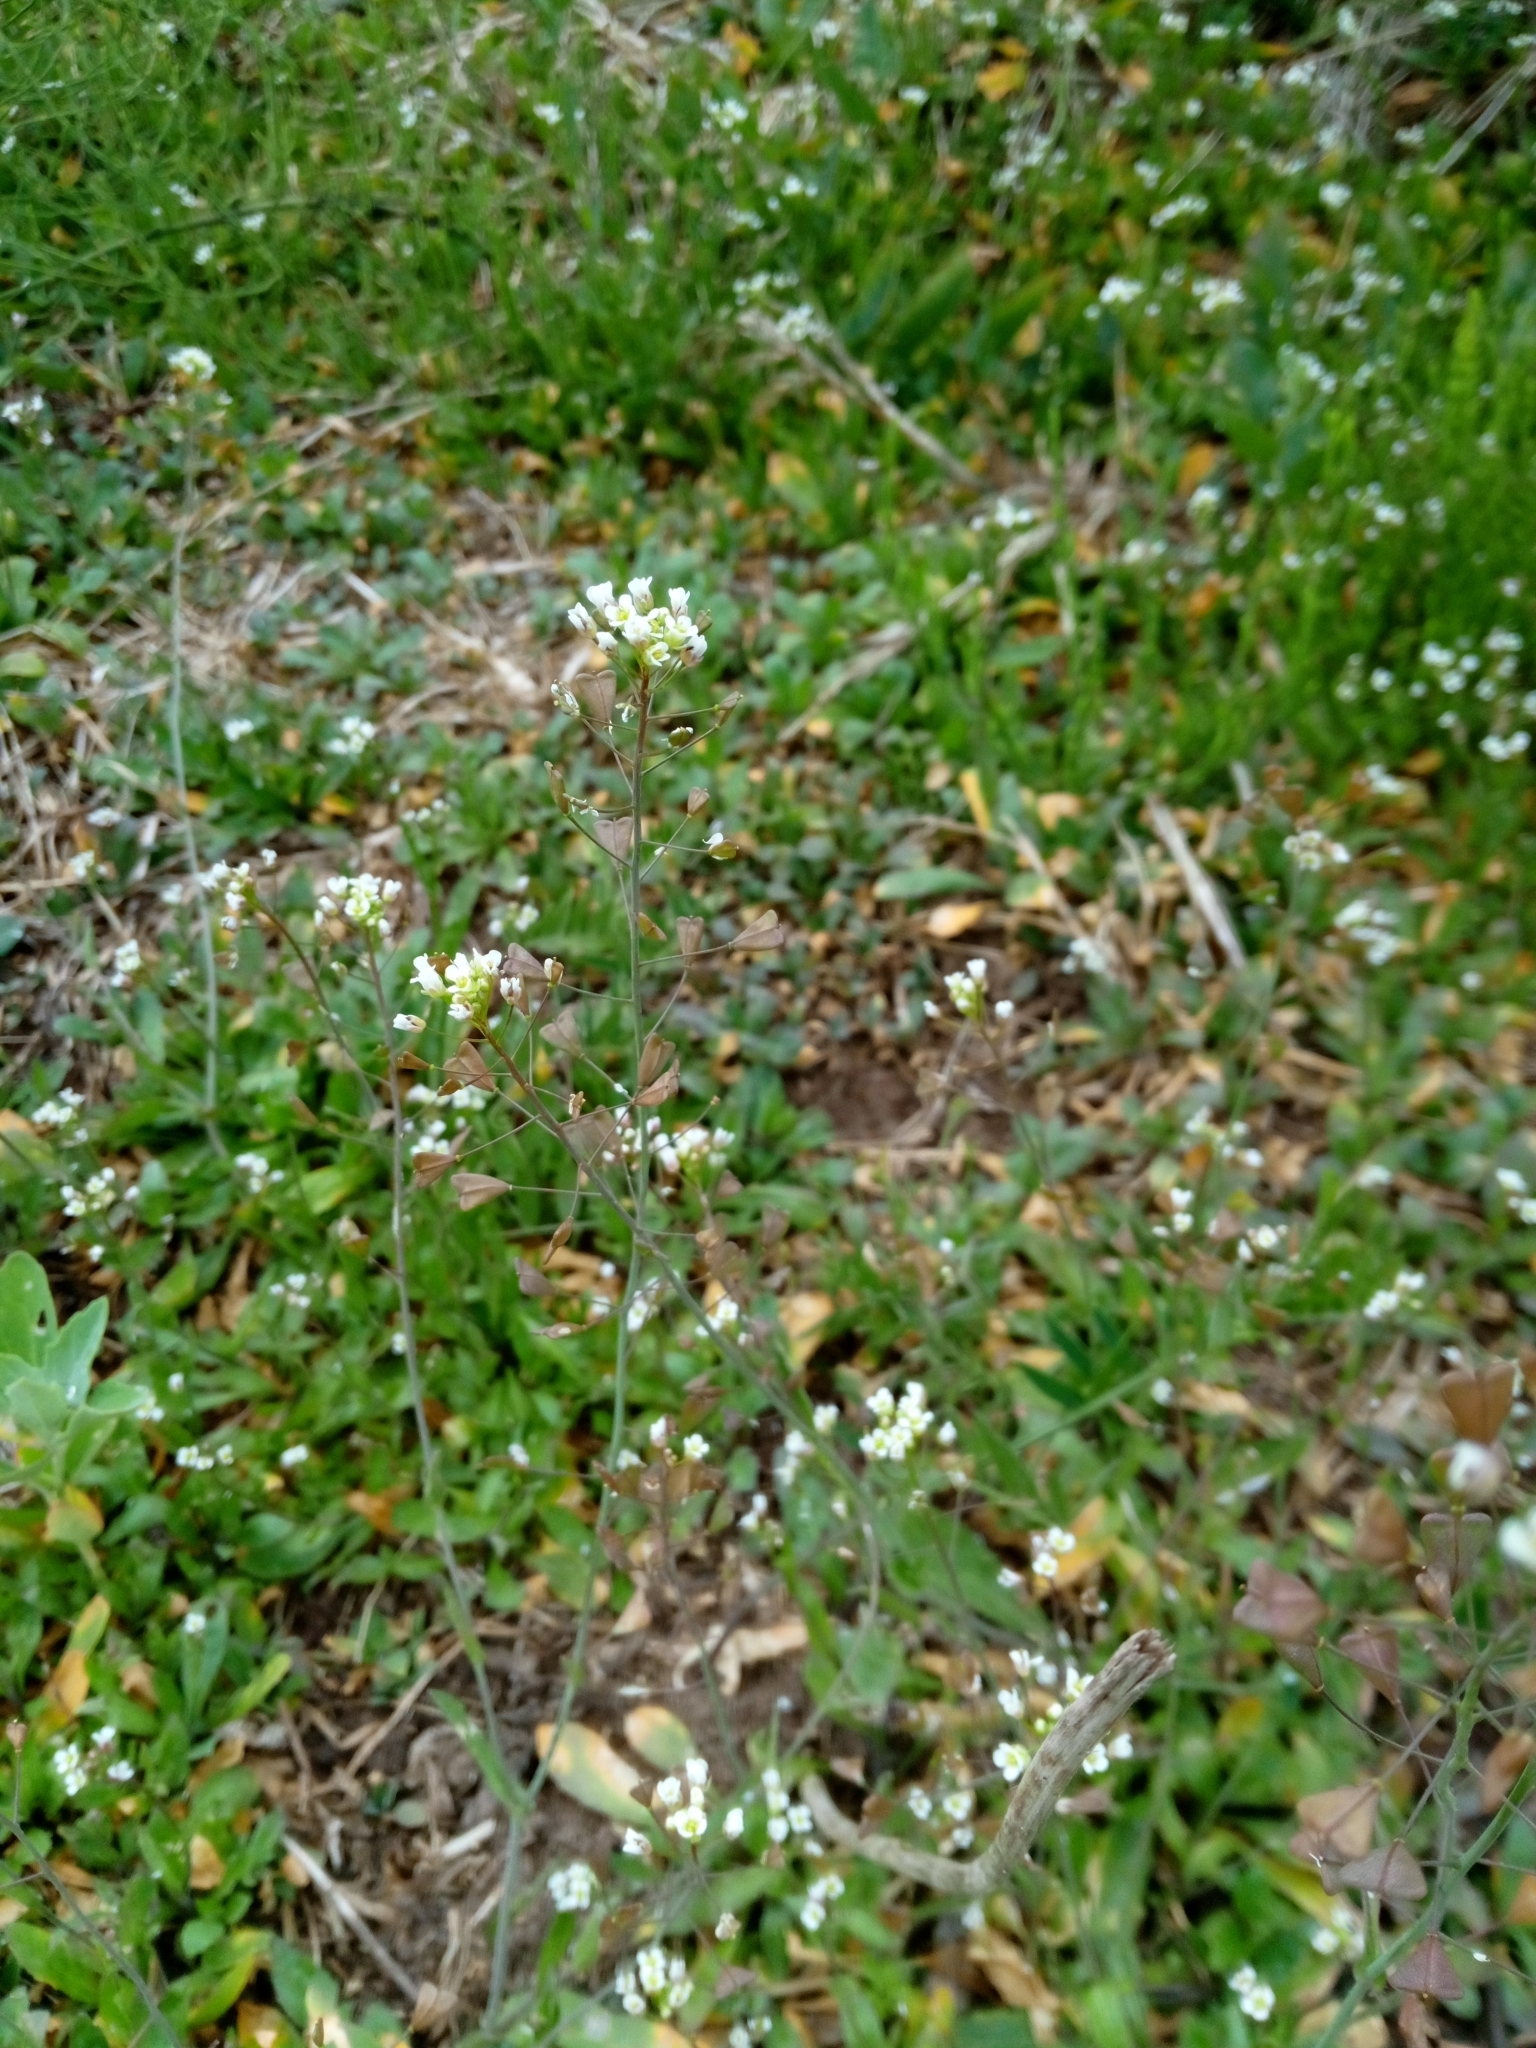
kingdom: Plantae
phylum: Tracheophyta
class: Magnoliopsida
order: Brassicales
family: Brassicaceae
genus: Capsella
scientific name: Capsella bursa-pastoris
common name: Shepherd's purse
